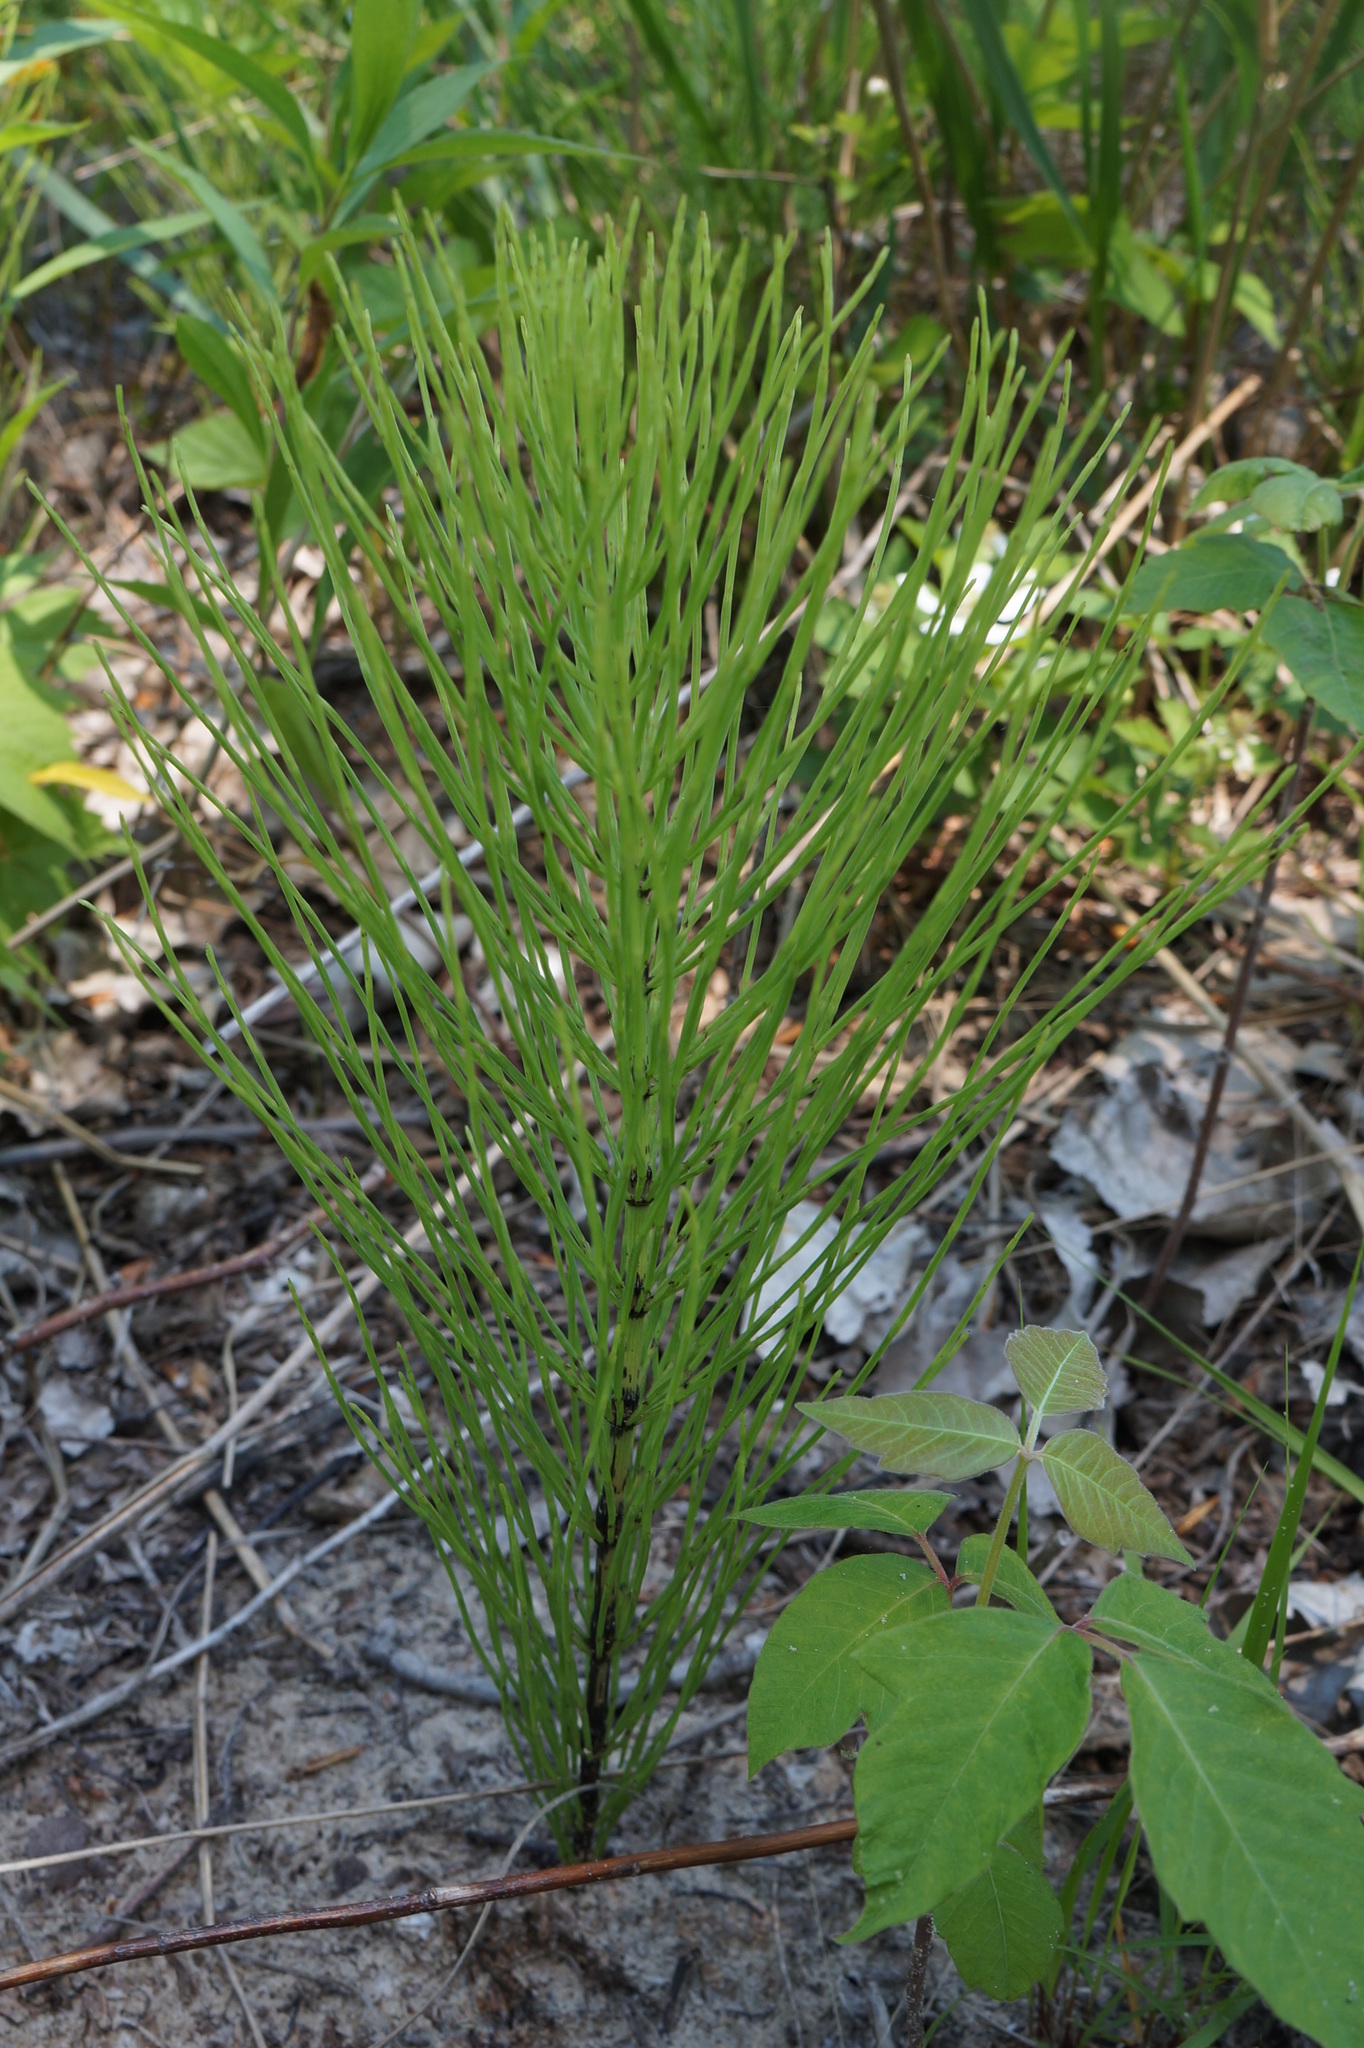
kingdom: Plantae
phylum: Tracheophyta
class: Polypodiopsida
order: Equisetales
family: Equisetaceae
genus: Equisetum
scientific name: Equisetum arvense
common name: Field horsetail
